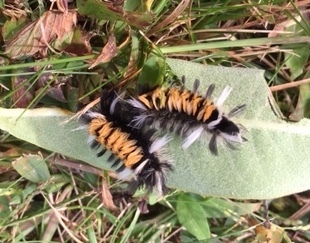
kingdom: Animalia
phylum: Arthropoda
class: Insecta
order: Lepidoptera
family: Erebidae
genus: Euchaetes
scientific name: Euchaetes egle
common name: Milkweed tussock moth
